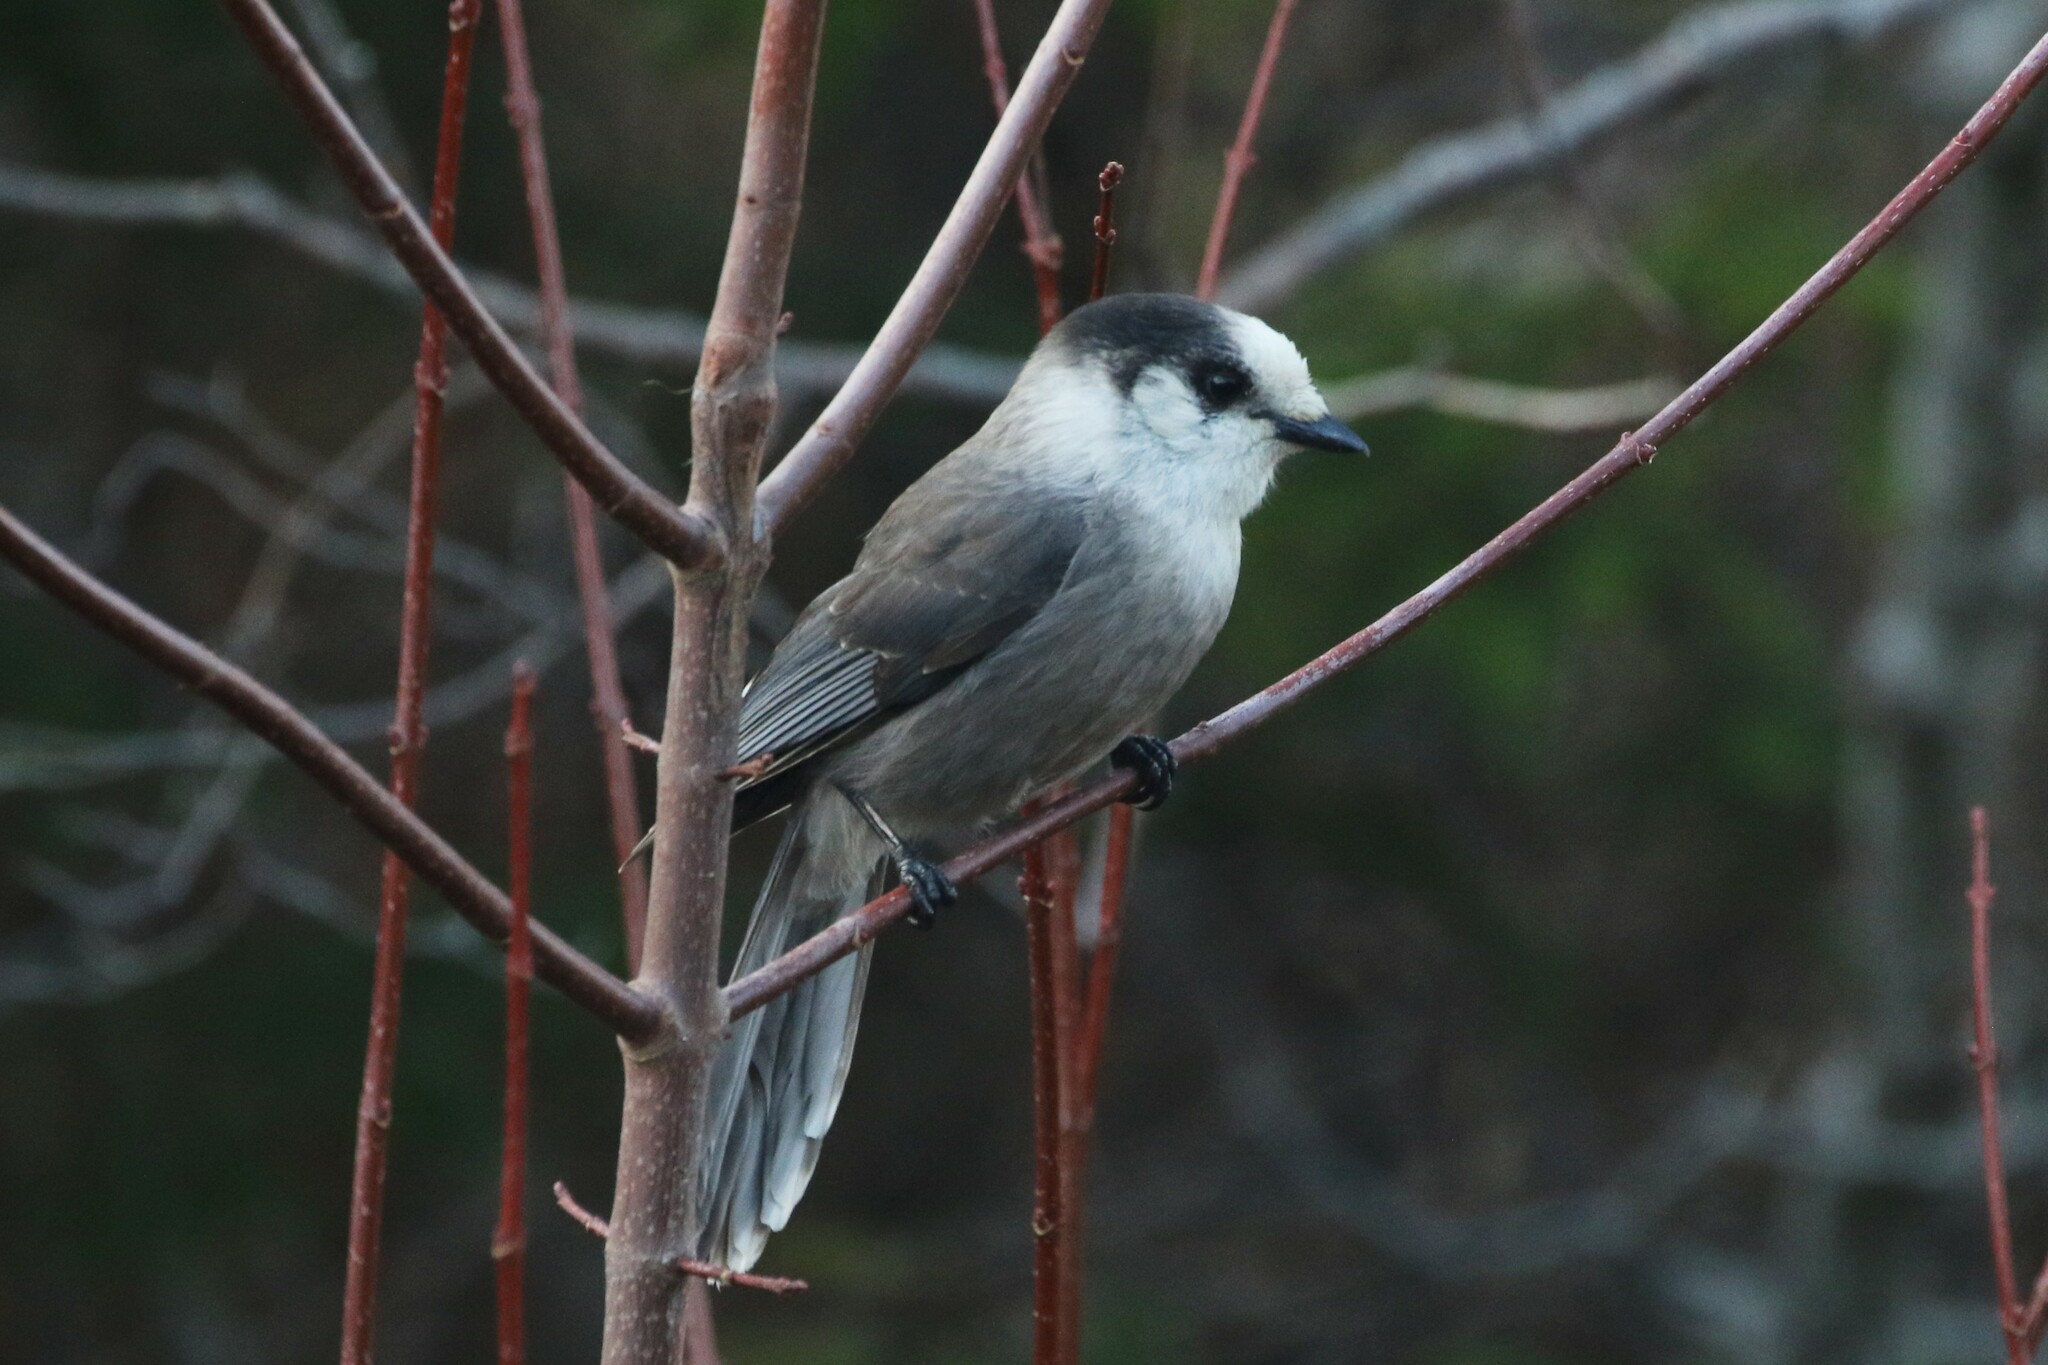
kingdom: Animalia
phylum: Chordata
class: Aves
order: Passeriformes
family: Corvidae
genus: Perisoreus
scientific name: Perisoreus canadensis
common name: Gray jay
